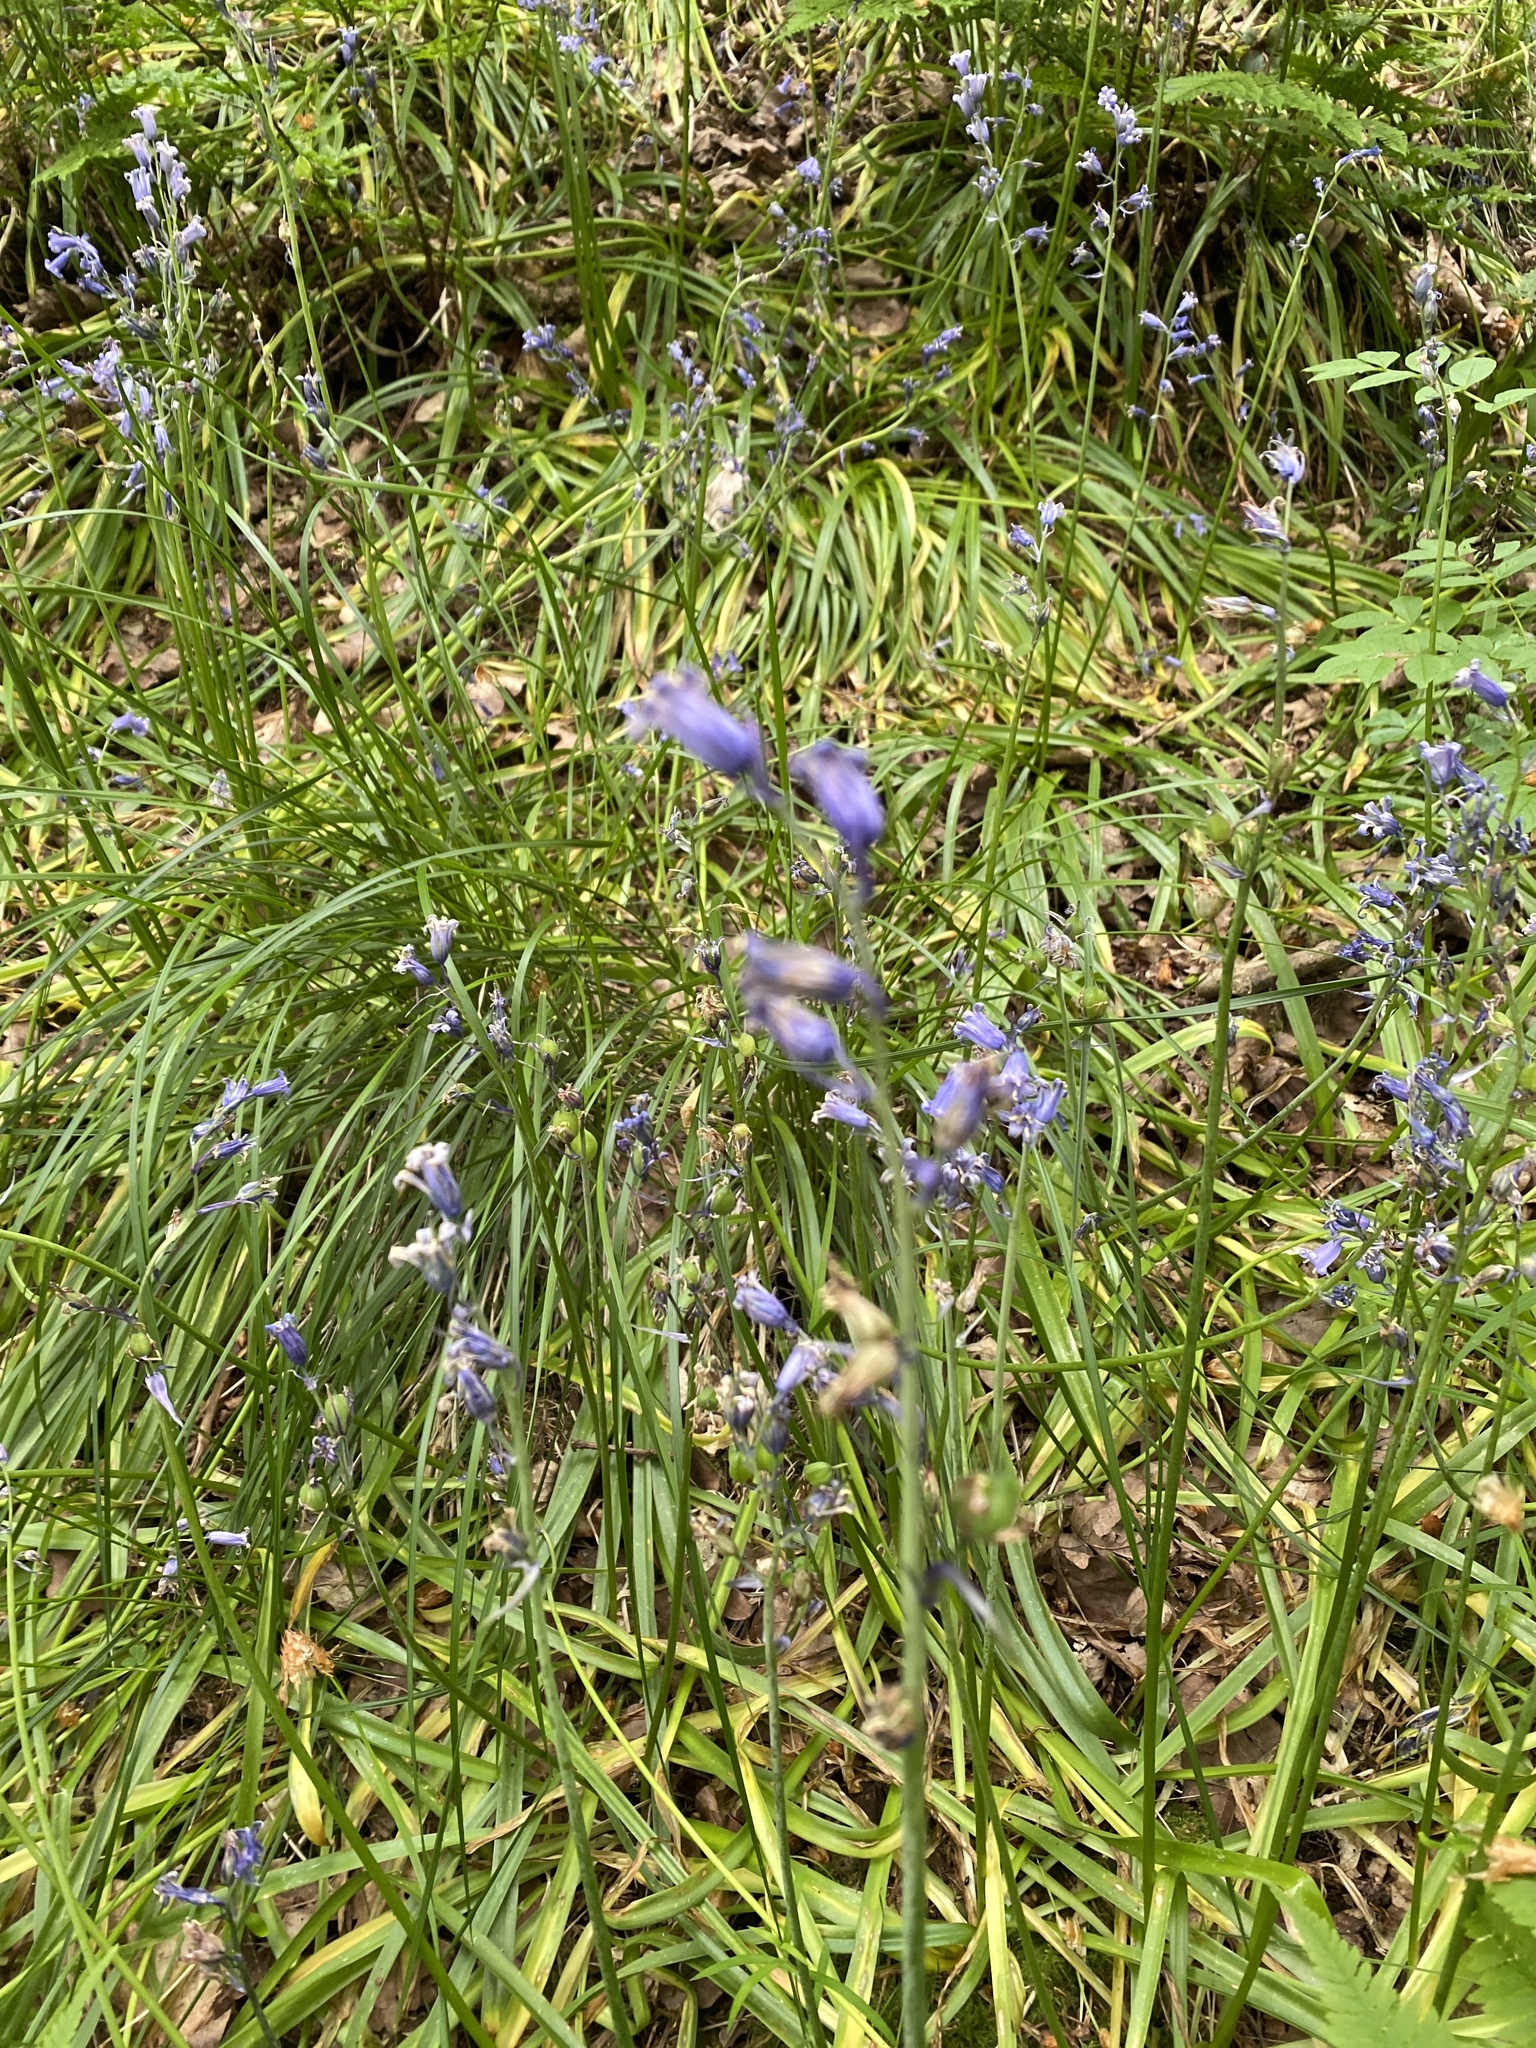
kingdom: Plantae
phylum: Tracheophyta
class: Liliopsida
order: Asparagales
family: Asparagaceae
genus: Hyacinthoides
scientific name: Hyacinthoides non-scripta
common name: Bluebell
